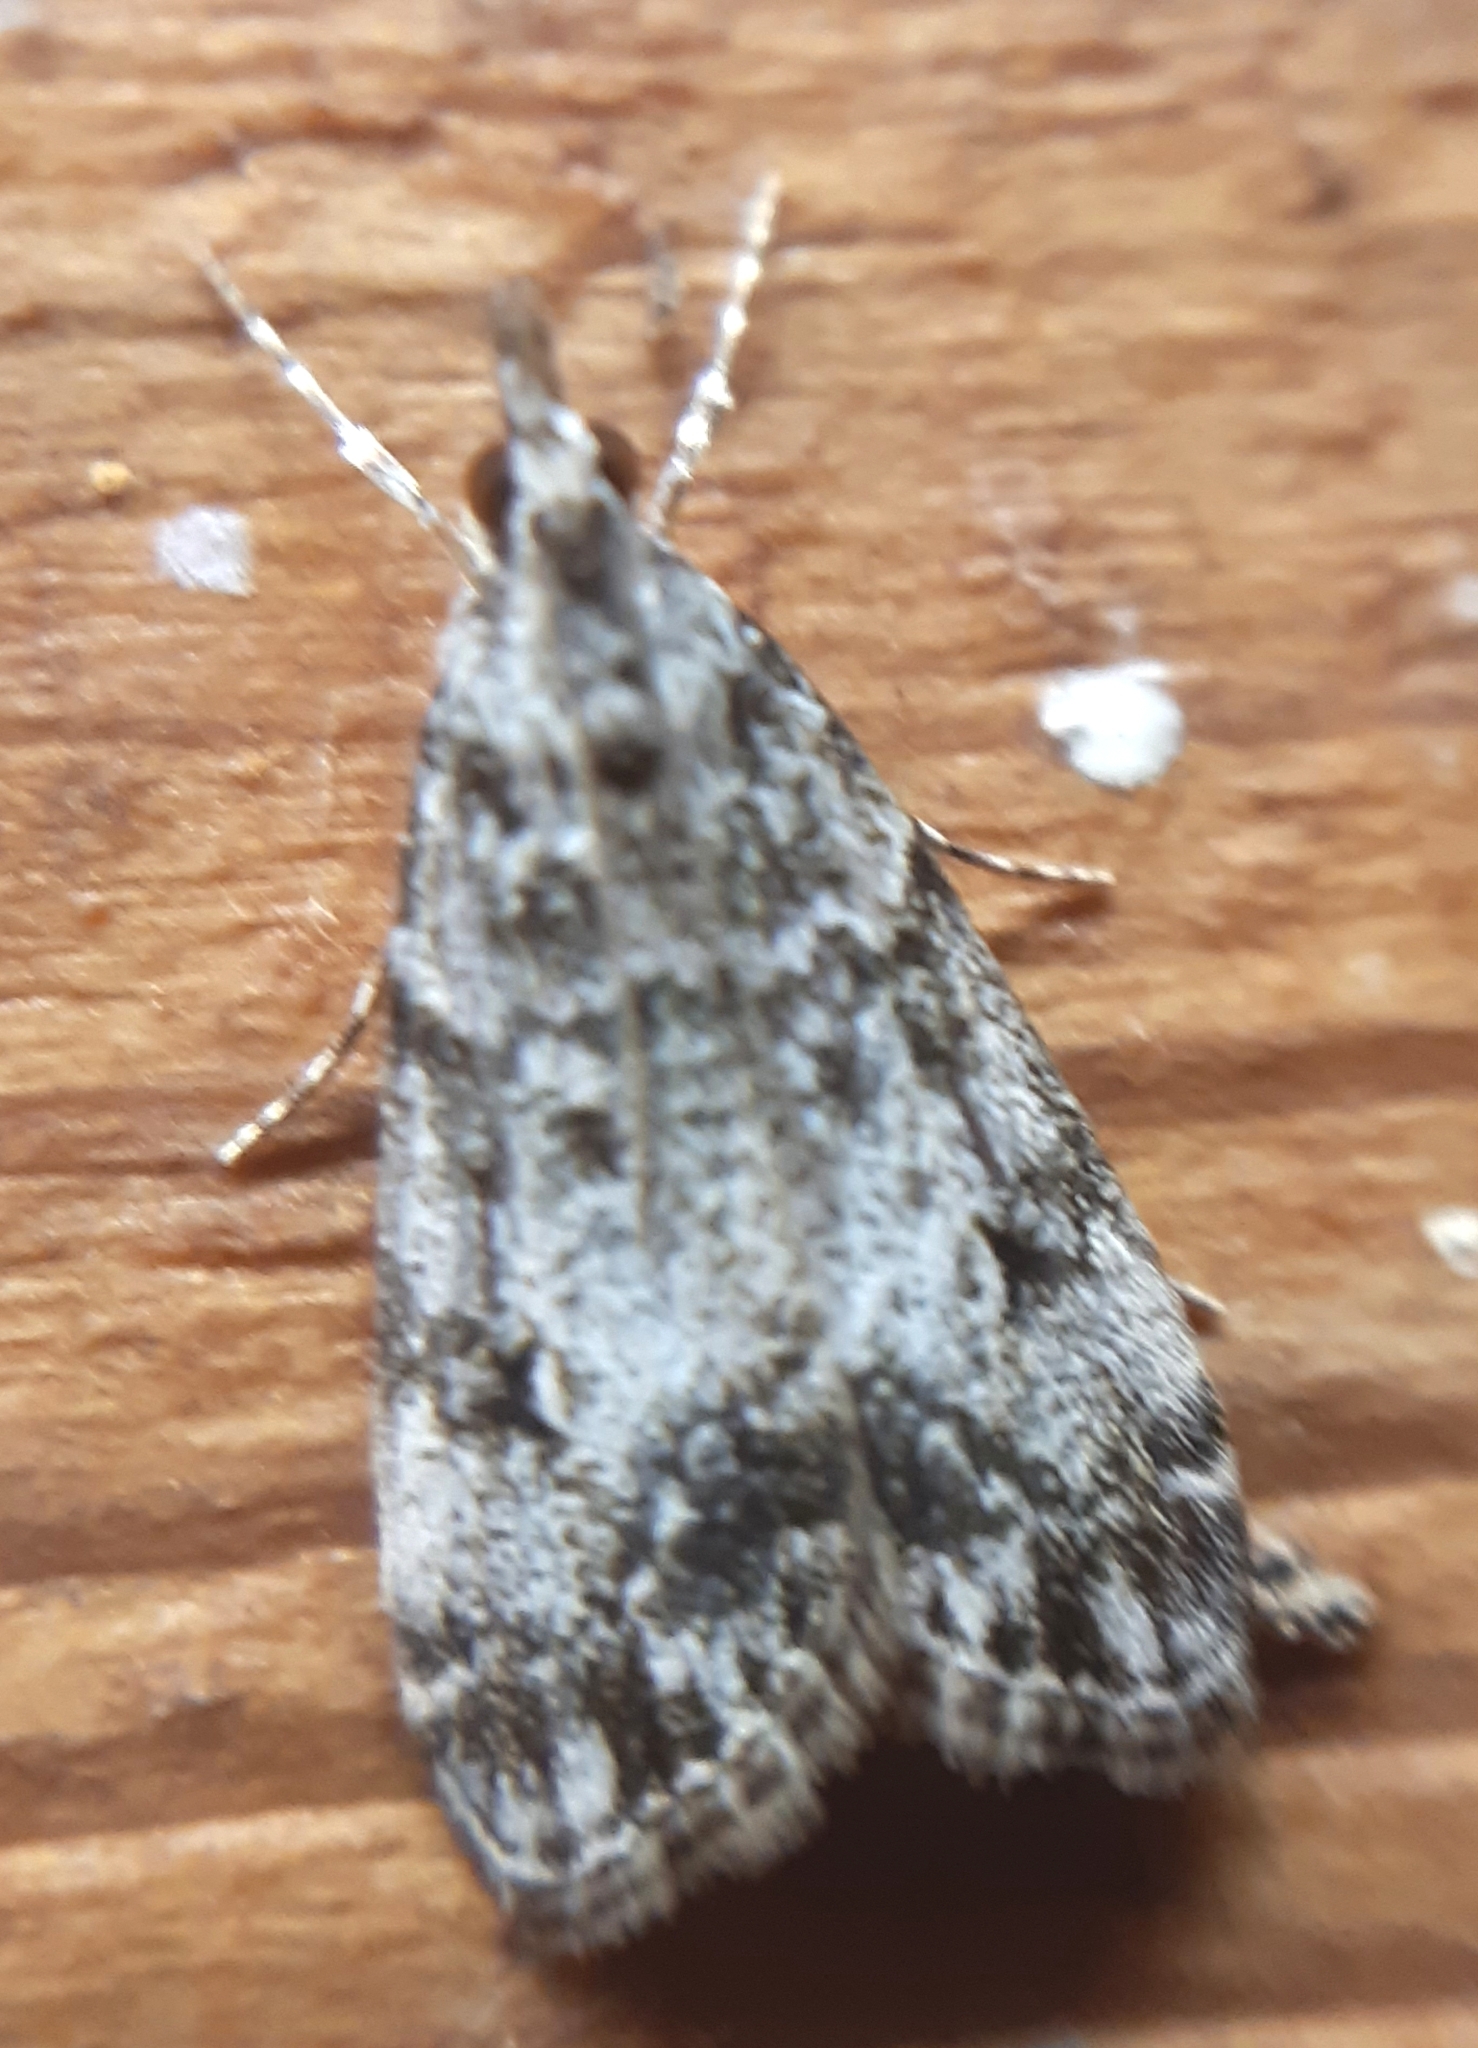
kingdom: Animalia
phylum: Arthropoda
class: Insecta
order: Lepidoptera
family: Crambidae
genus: Eudonia
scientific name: Eudonia lacustrata
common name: Little grey
